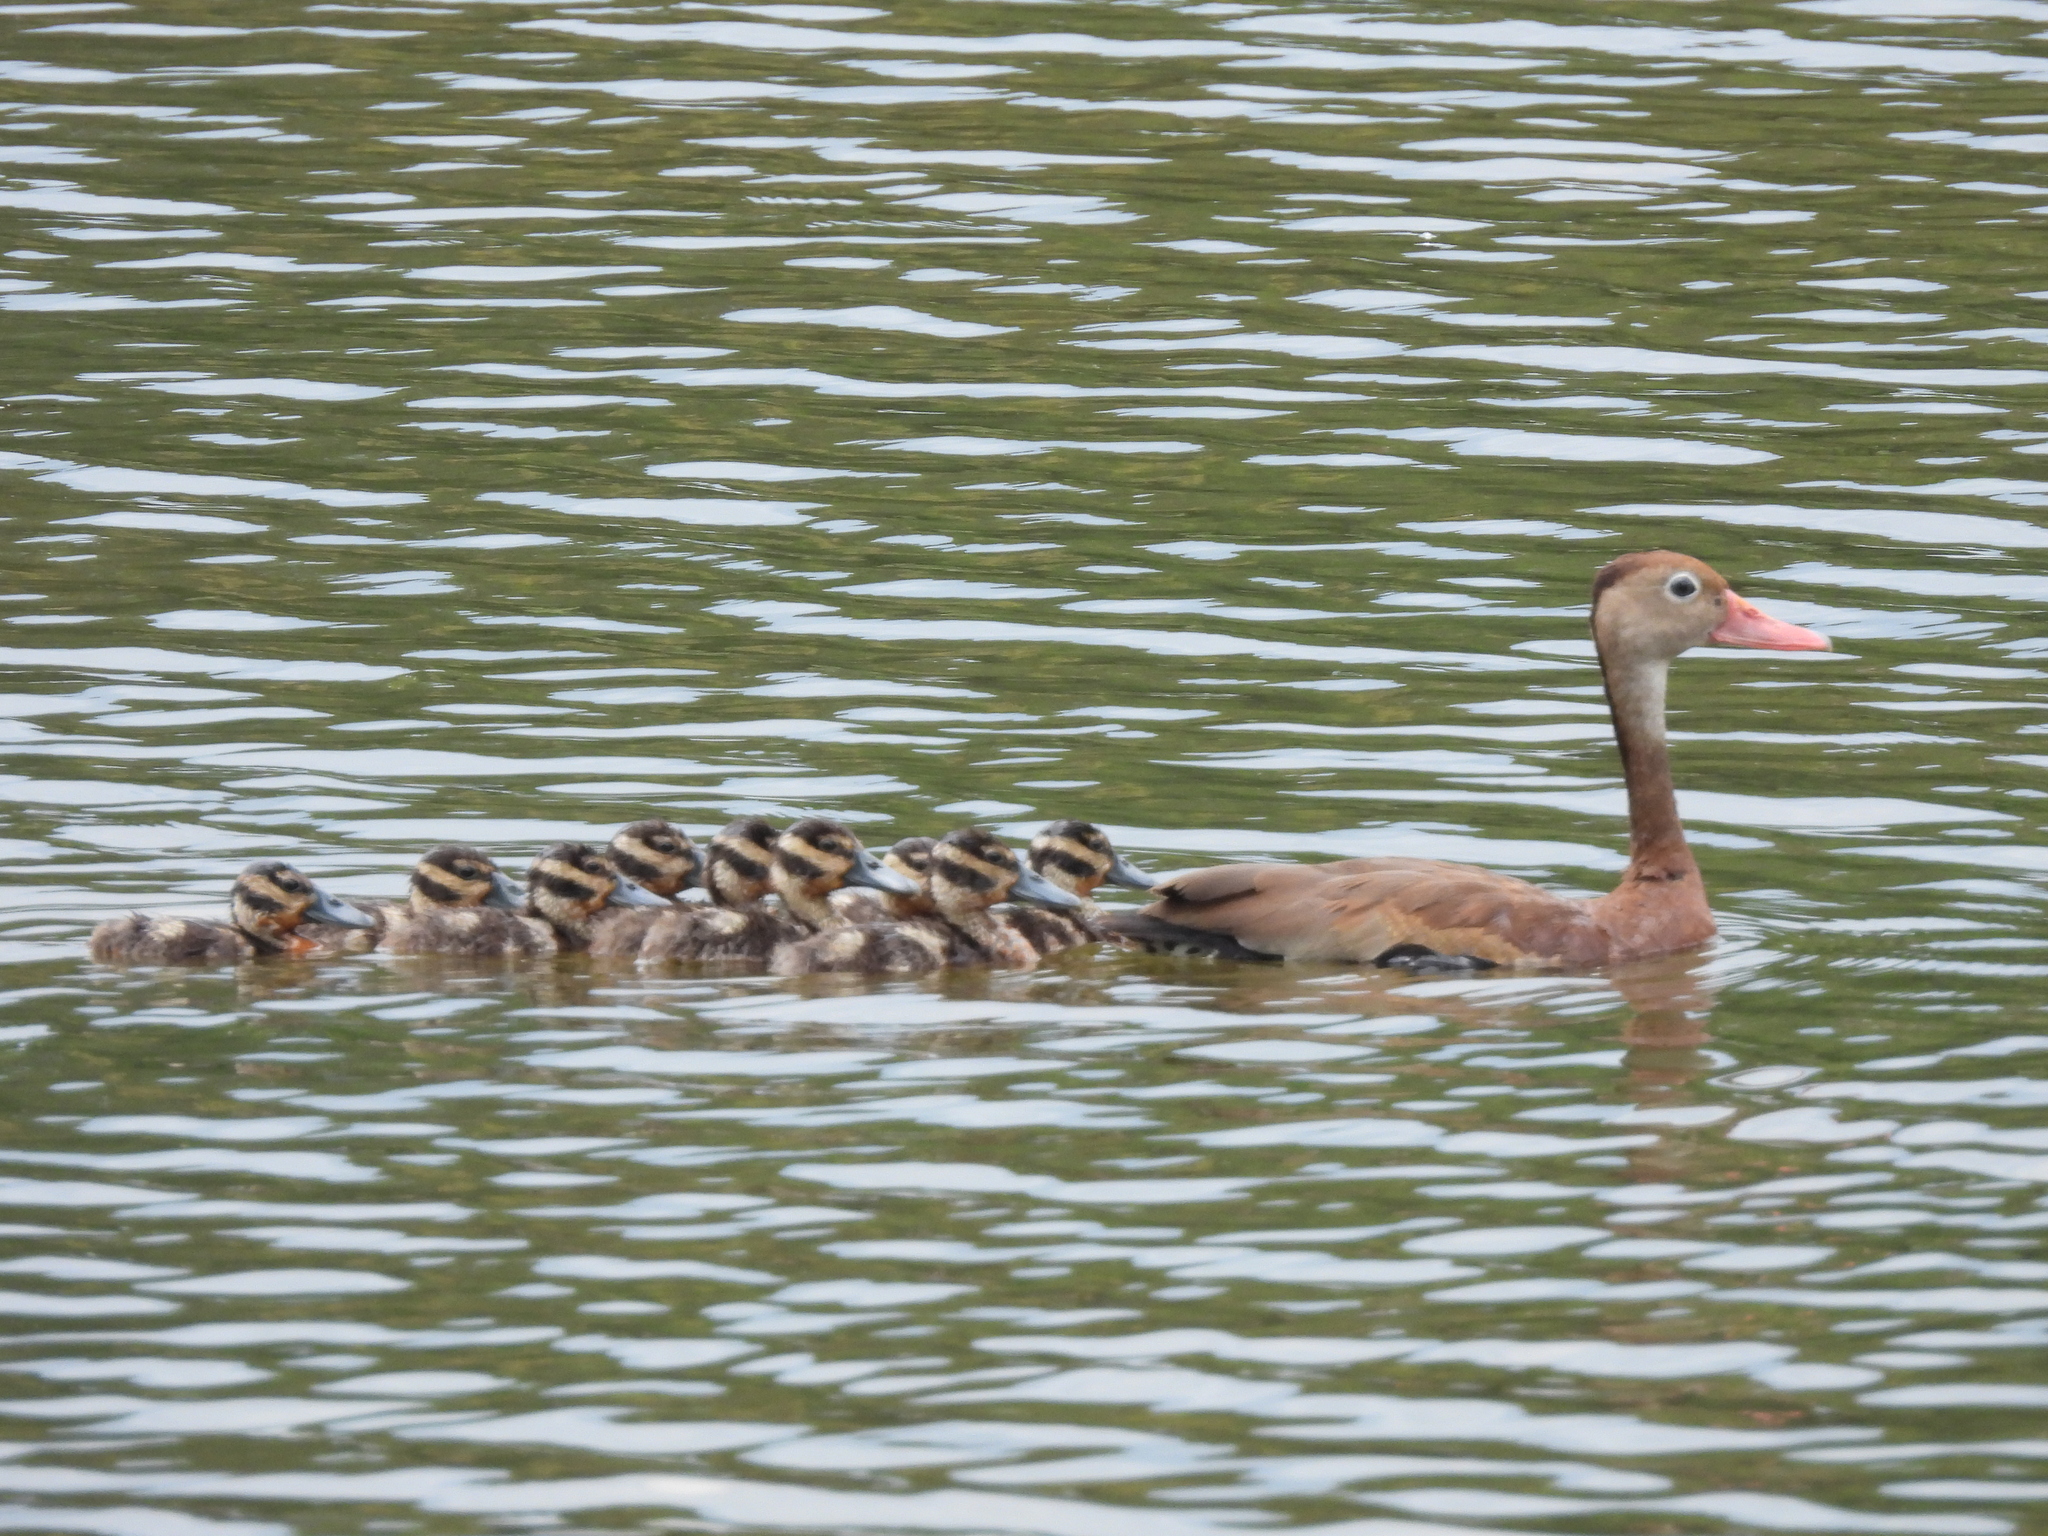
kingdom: Animalia
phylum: Chordata
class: Aves
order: Anseriformes
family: Anatidae
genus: Dendrocygna
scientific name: Dendrocygna autumnalis
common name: Black-bellied whistling duck
